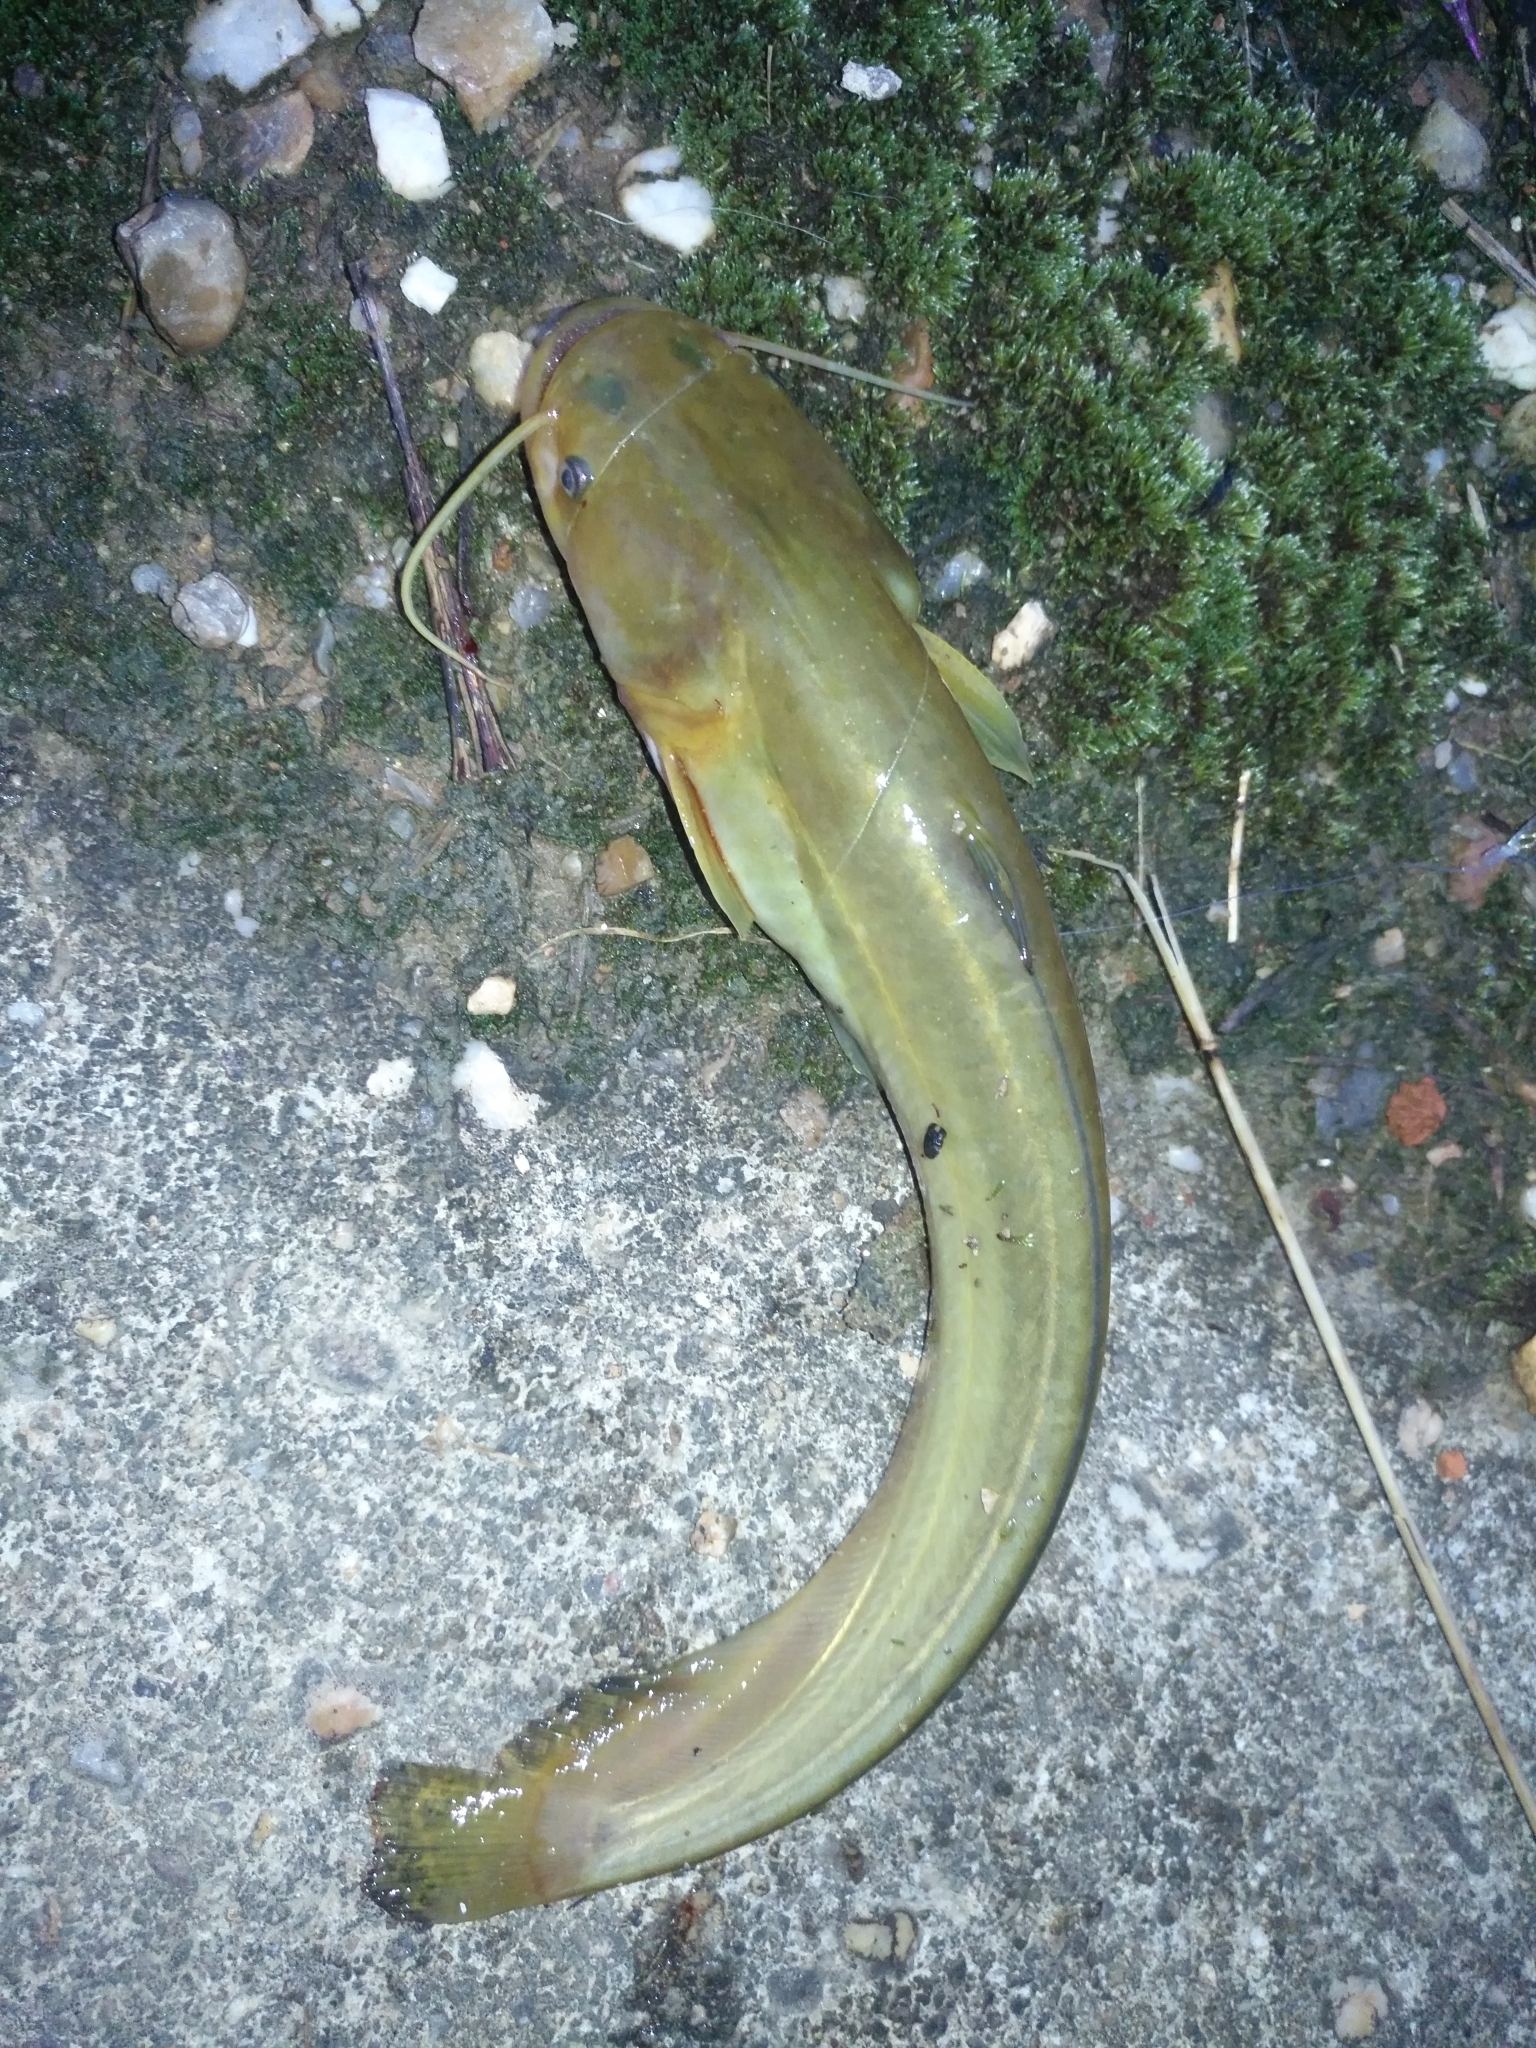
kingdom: Animalia
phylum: Chordata
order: Siluriformes
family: Siluridae
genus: Silurus
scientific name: Silurus meridionalis
